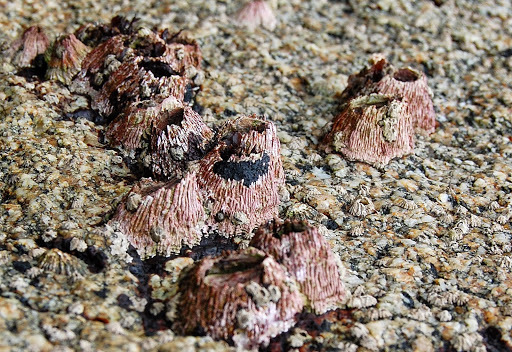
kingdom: Animalia
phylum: Arthropoda
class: Maxillopoda
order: Sessilia
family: Tetraclitidae
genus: Tetraclita
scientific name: Tetraclita rubescens
